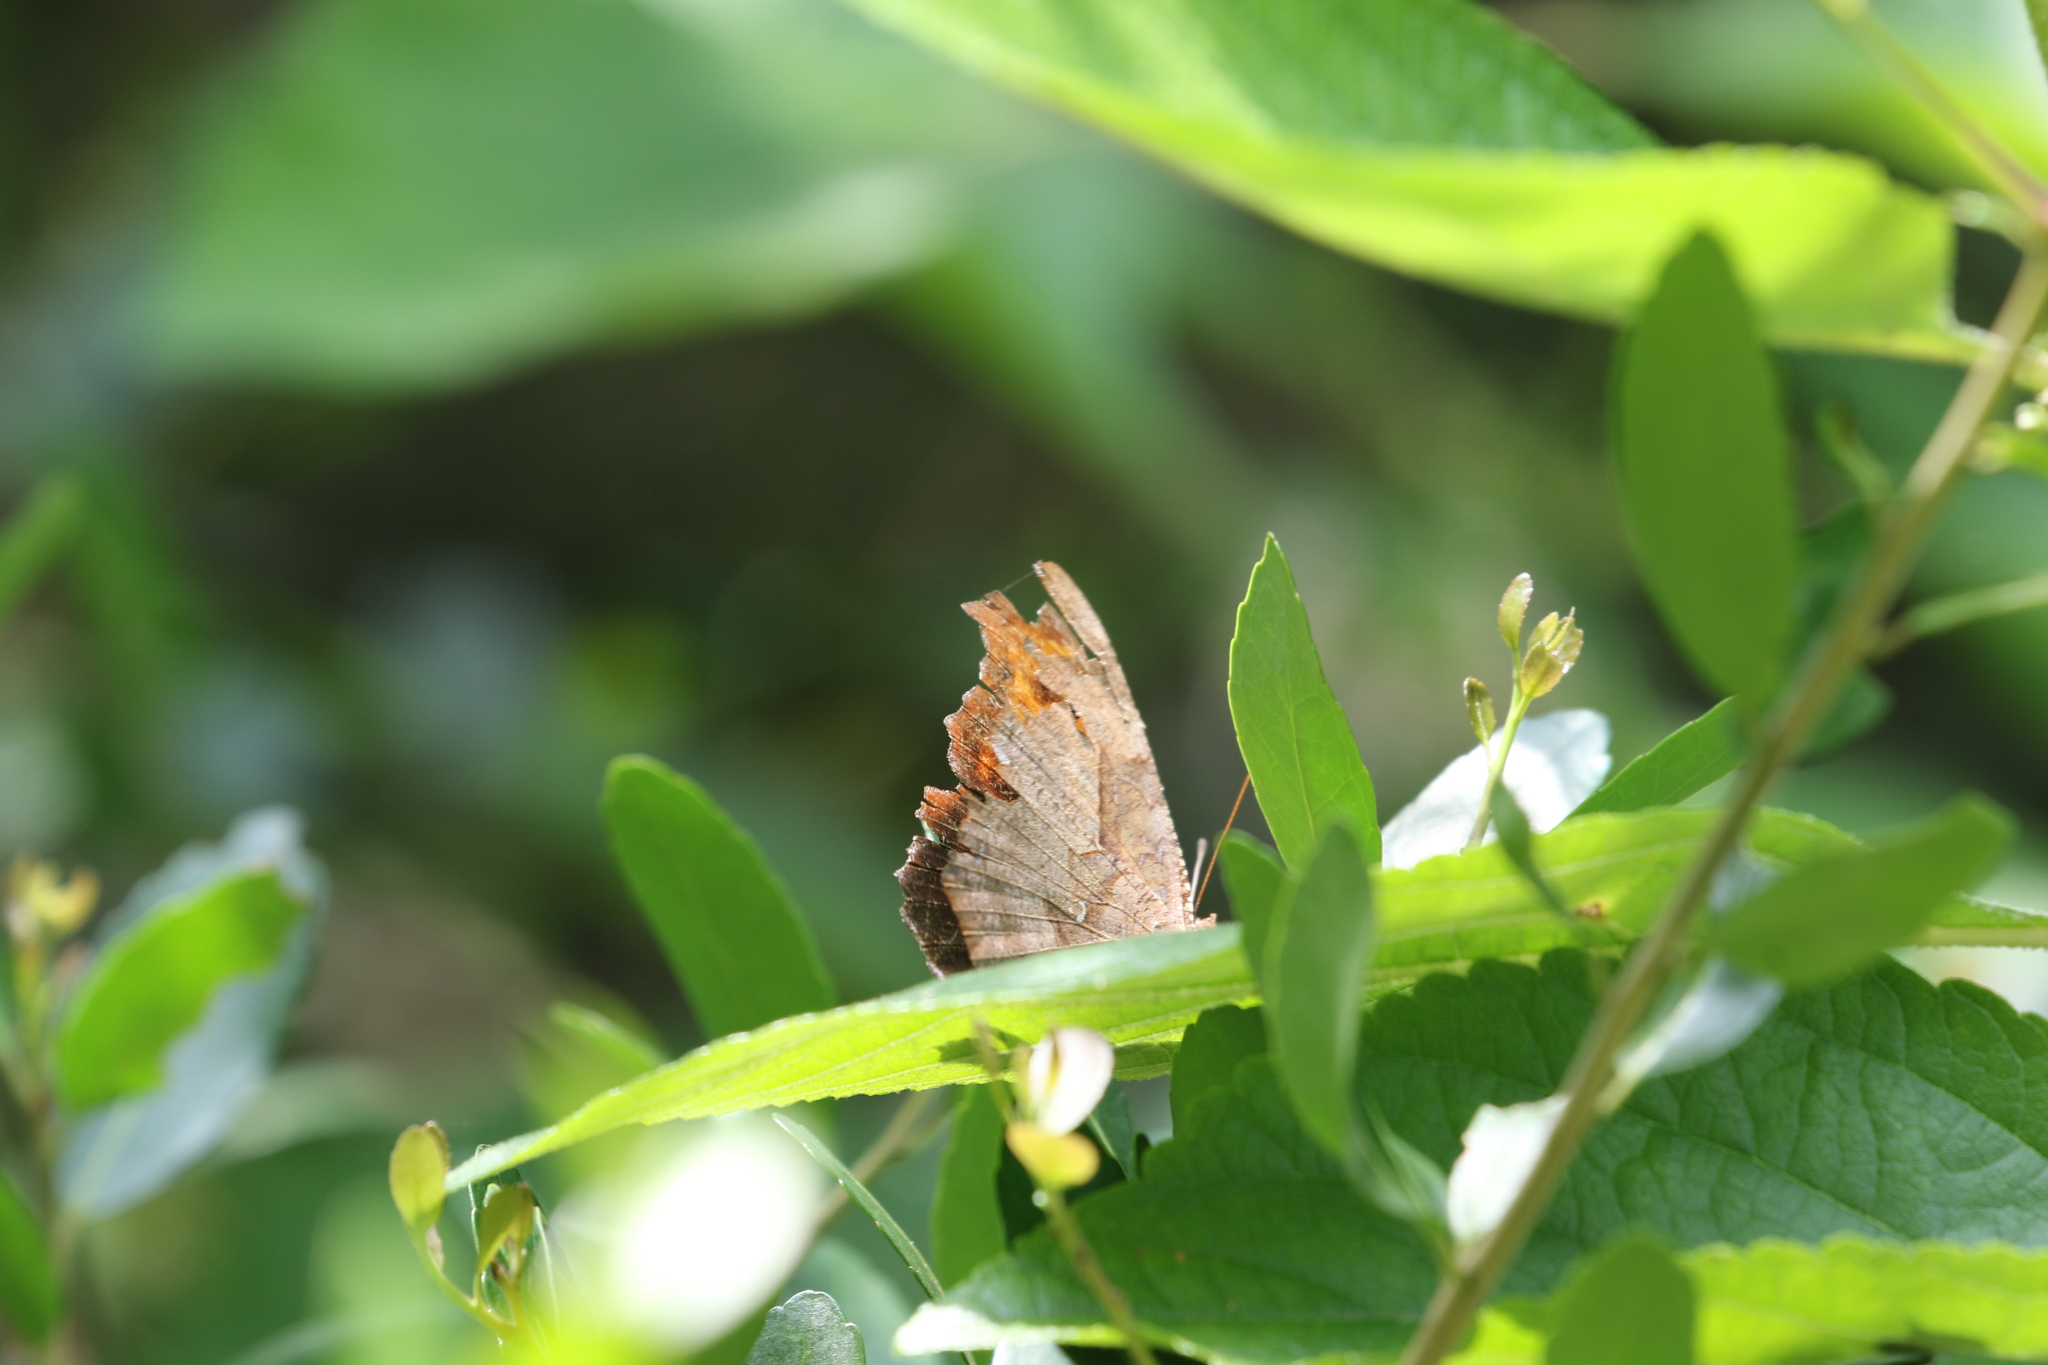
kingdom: Animalia
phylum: Arthropoda
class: Insecta
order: Lepidoptera
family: Nymphalidae
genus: Polygonia
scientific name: Polygonia interrogationis
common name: Question mark
